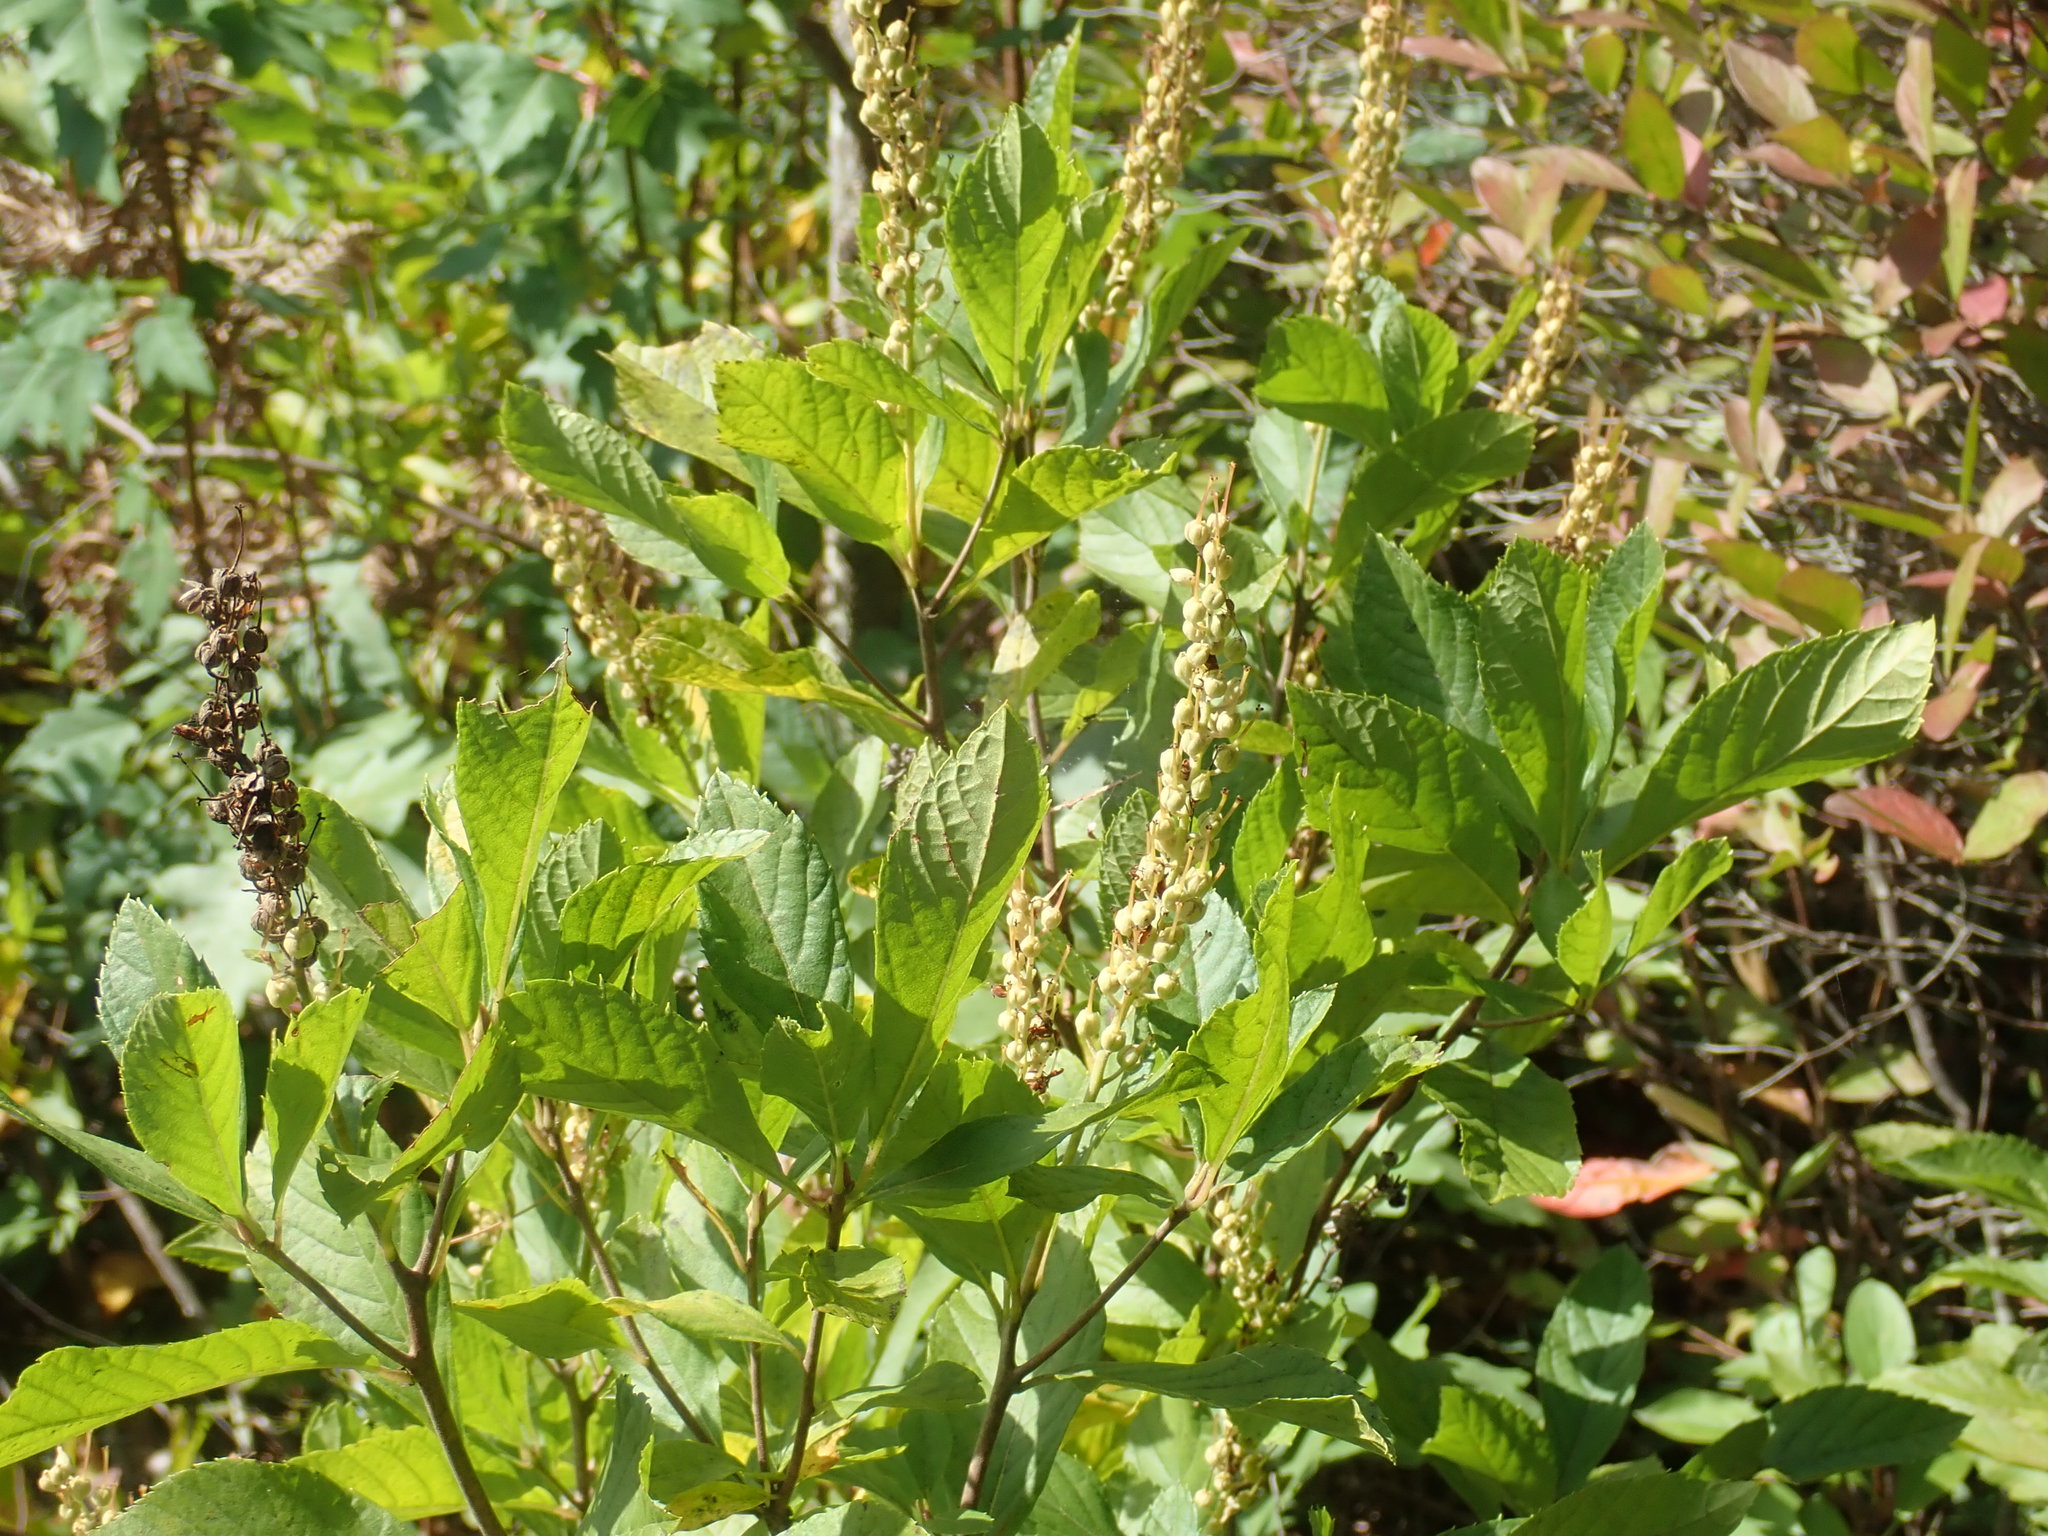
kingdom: Plantae
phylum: Tracheophyta
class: Magnoliopsida
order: Ericales
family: Clethraceae
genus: Clethra
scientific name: Clethra alnifolia
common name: Sweet pepperbush
